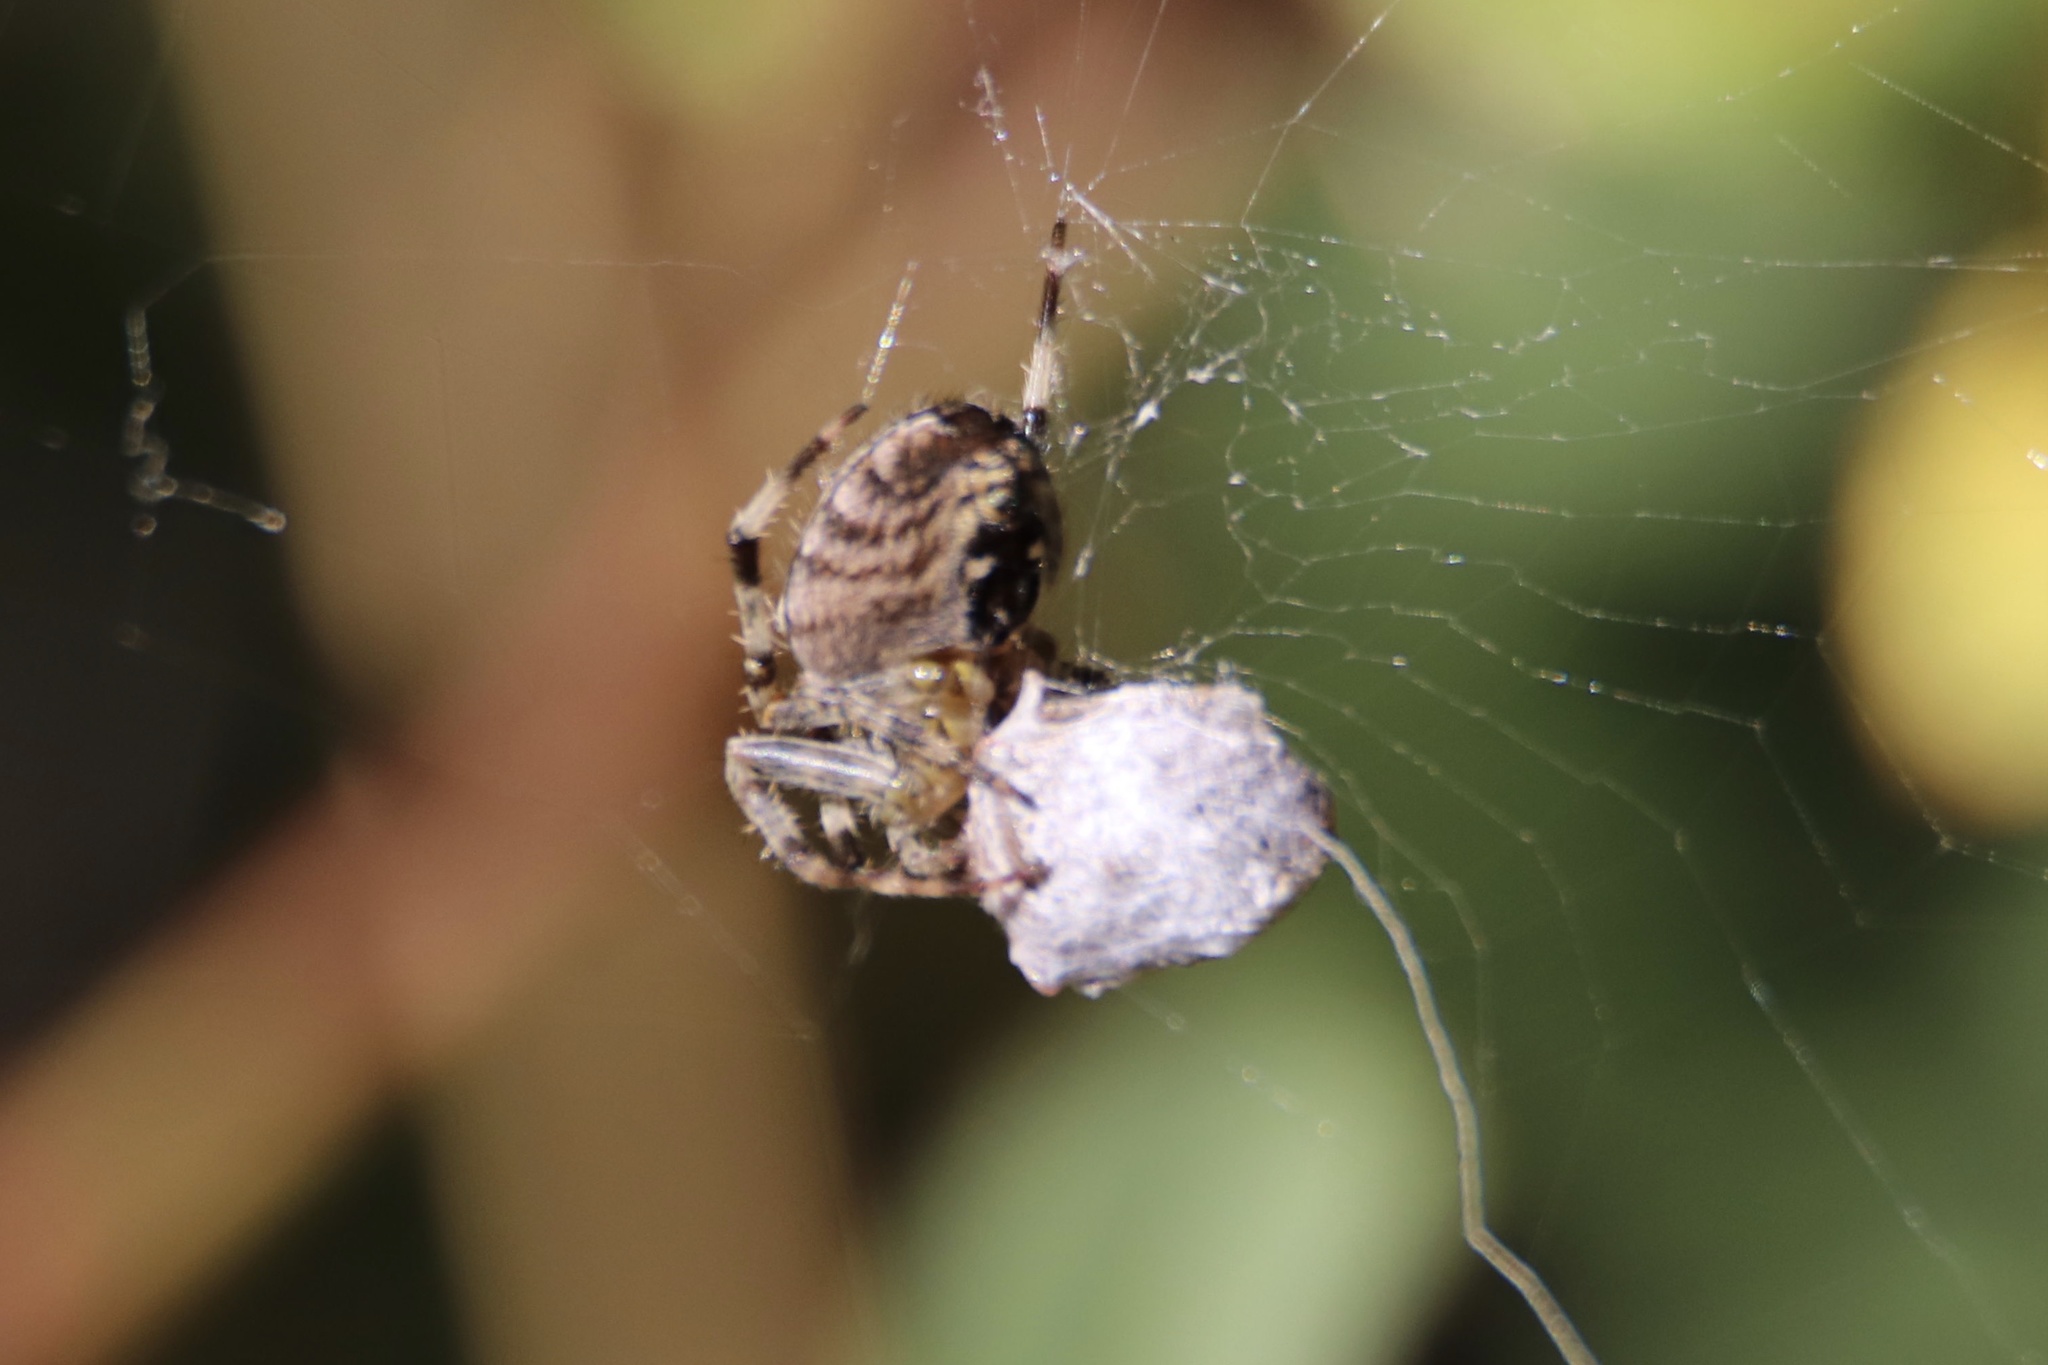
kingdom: Animalia
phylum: Arthropoda
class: Arachnida
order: Araneae
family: Araneidae
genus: Araneus
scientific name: Araneus diadematus
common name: Cross orbweaver
